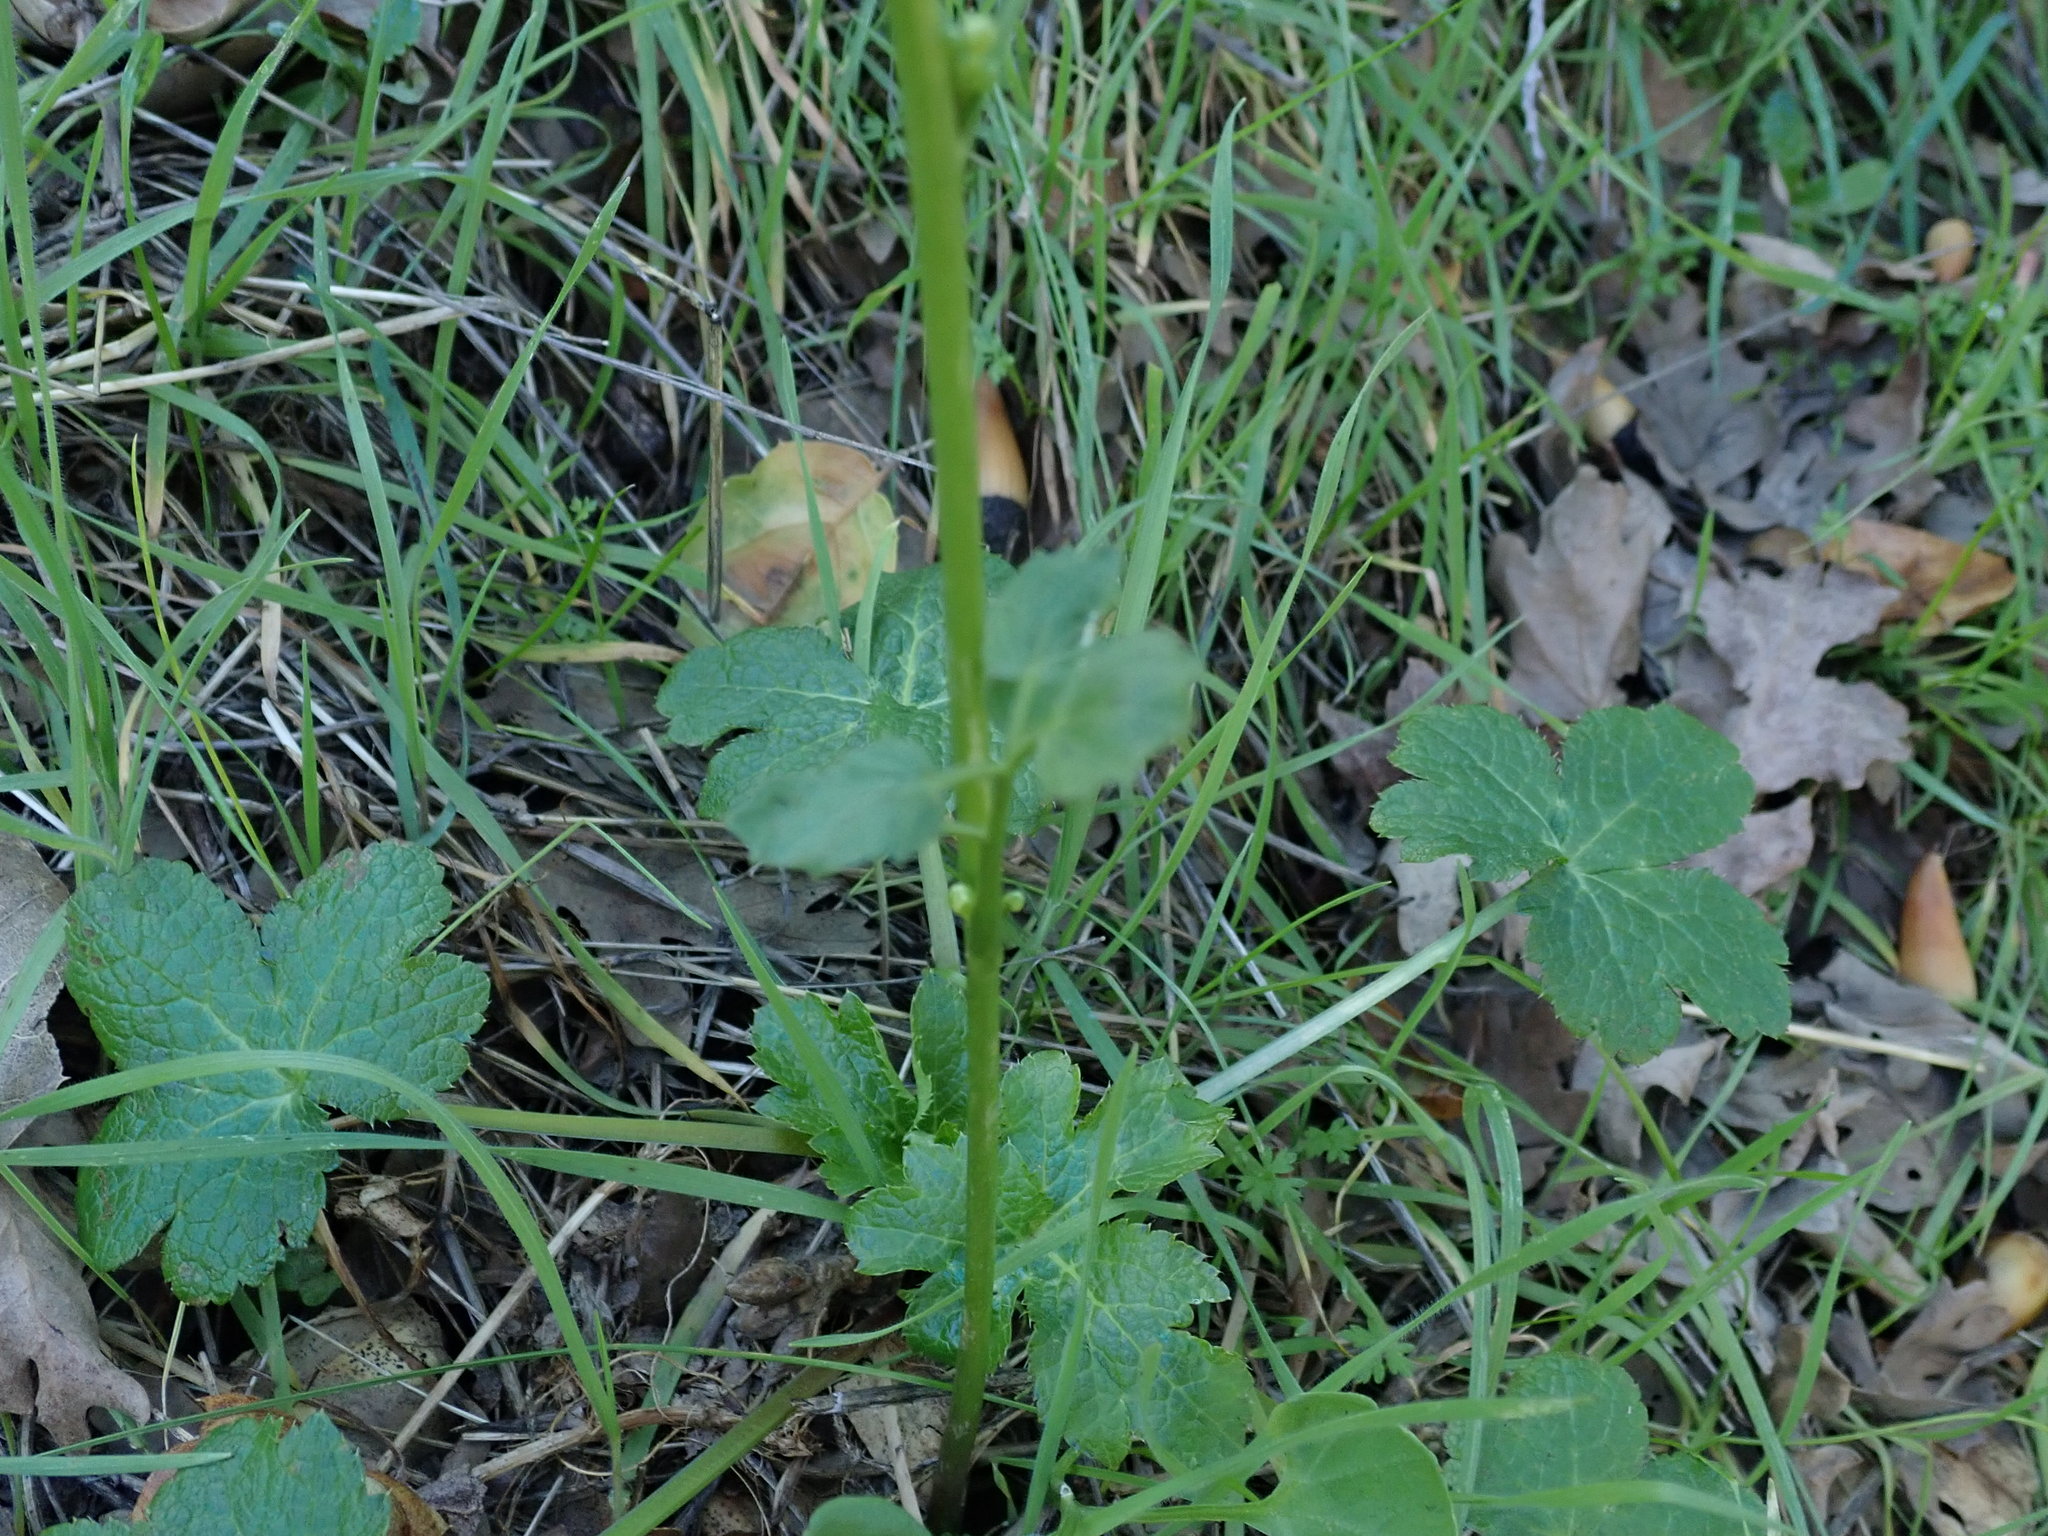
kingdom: Plantae
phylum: Tracheophyta
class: Magnoliopsida
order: Brassicales
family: Brassicaceae
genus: Cardamine
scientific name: Cardamine californica
